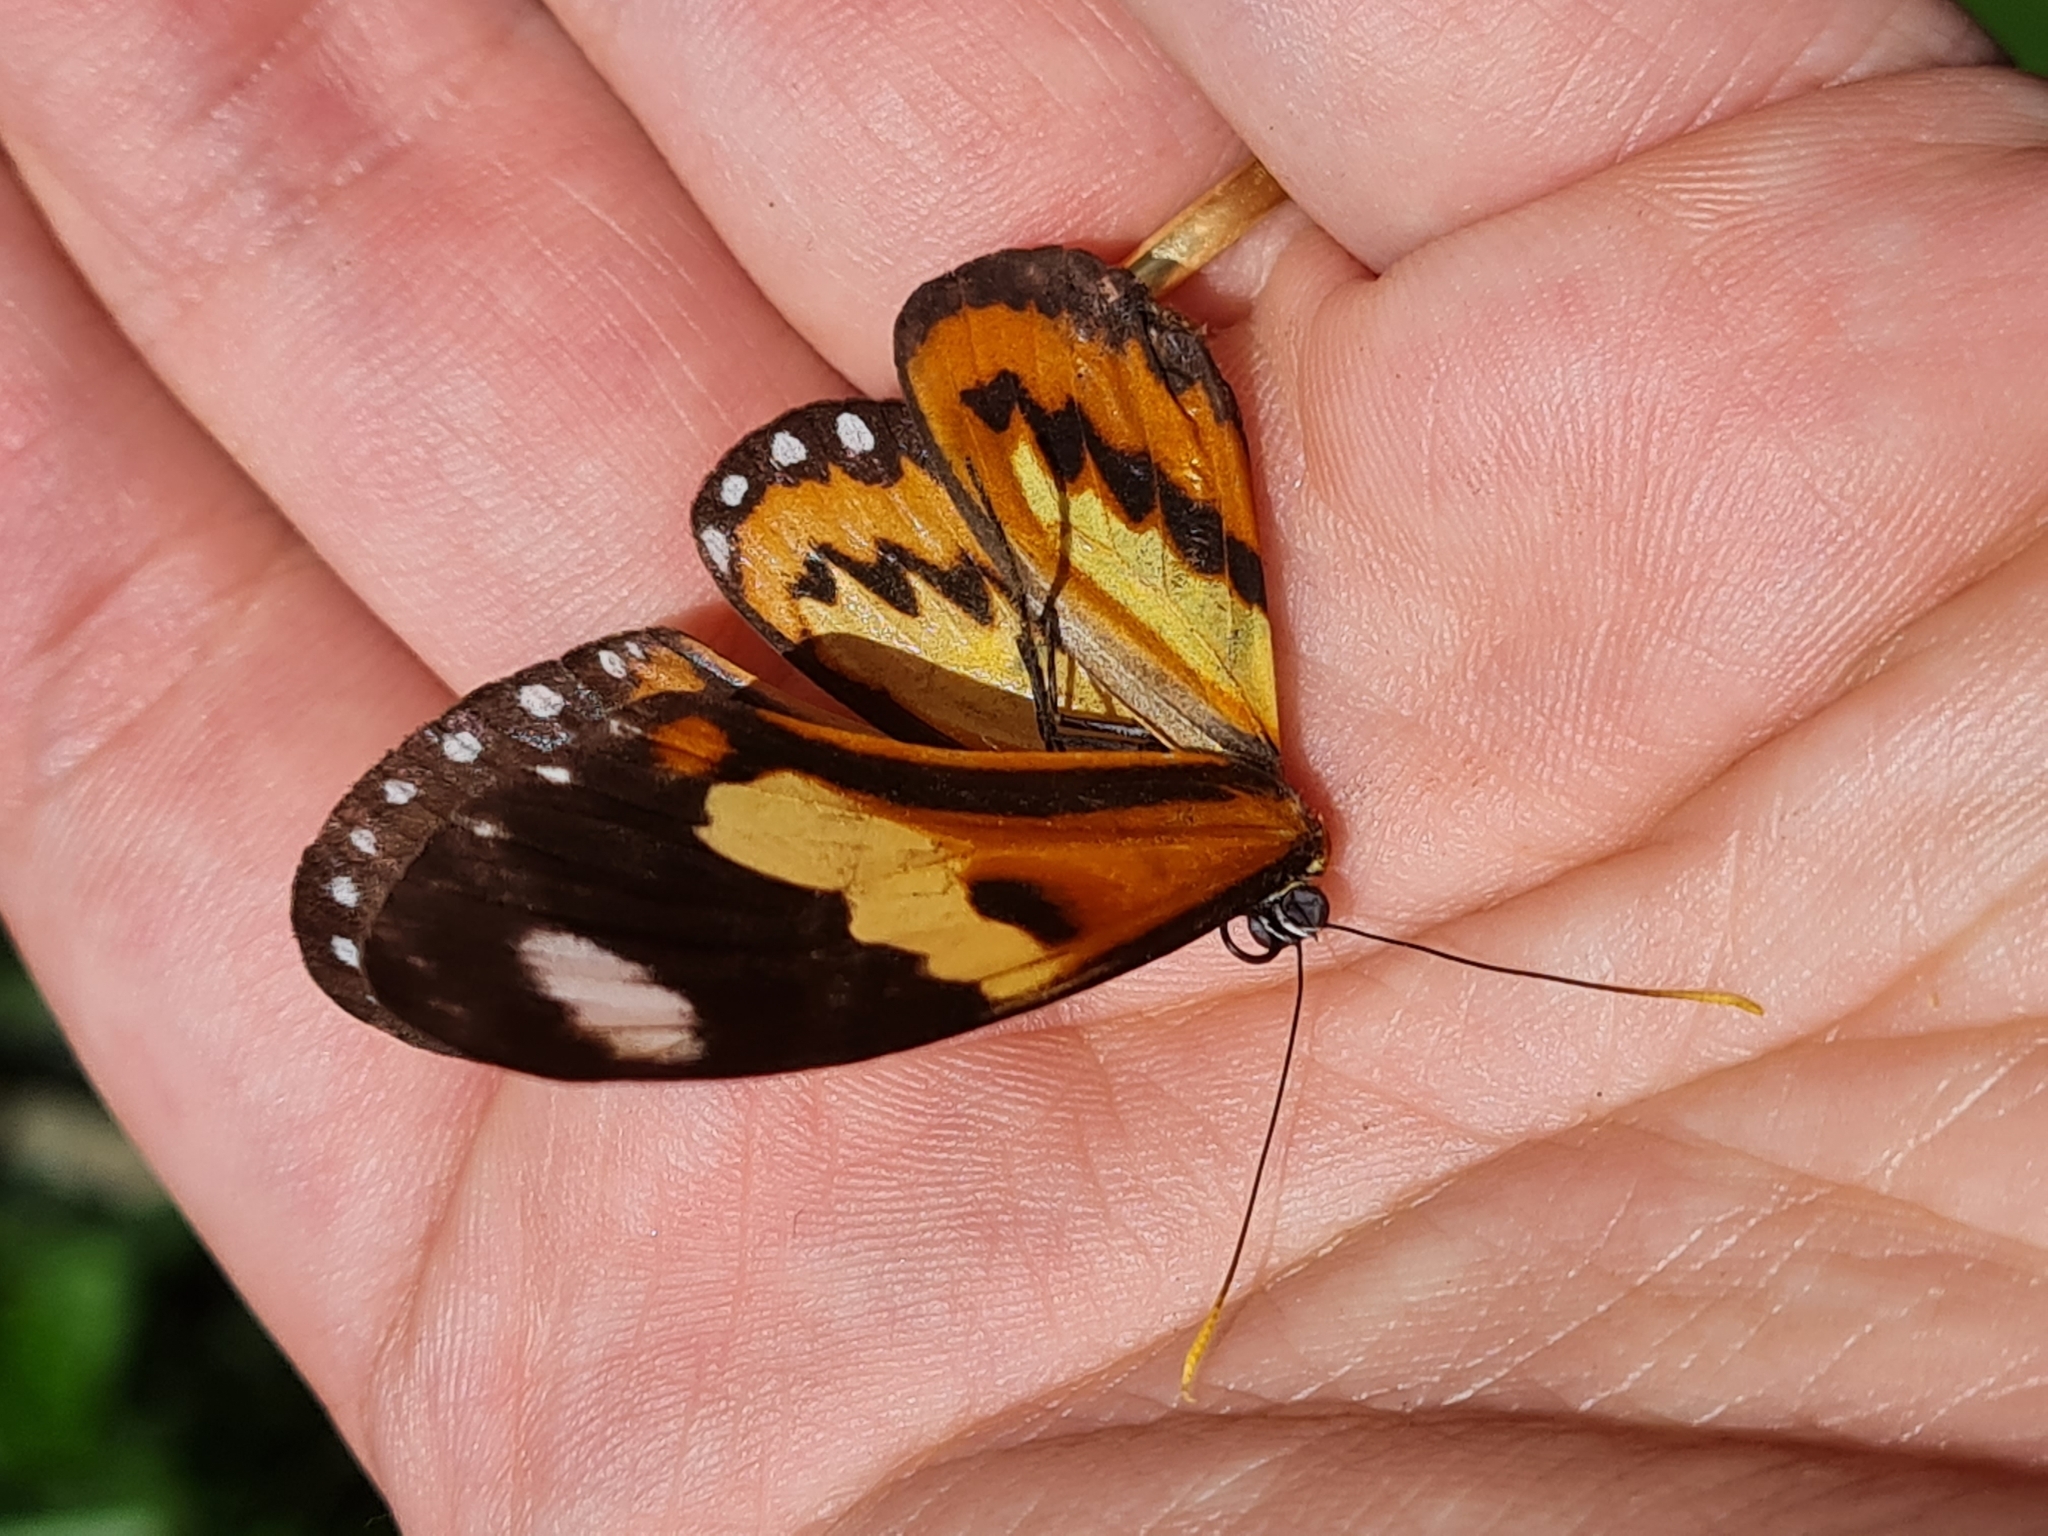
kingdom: Animalia
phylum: Arthropoda
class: Insecta
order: Lepidoptera
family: Nymphalidae
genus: Mechanitis
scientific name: Mechanitis lysimnia
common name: Lysimnia tigerwing
